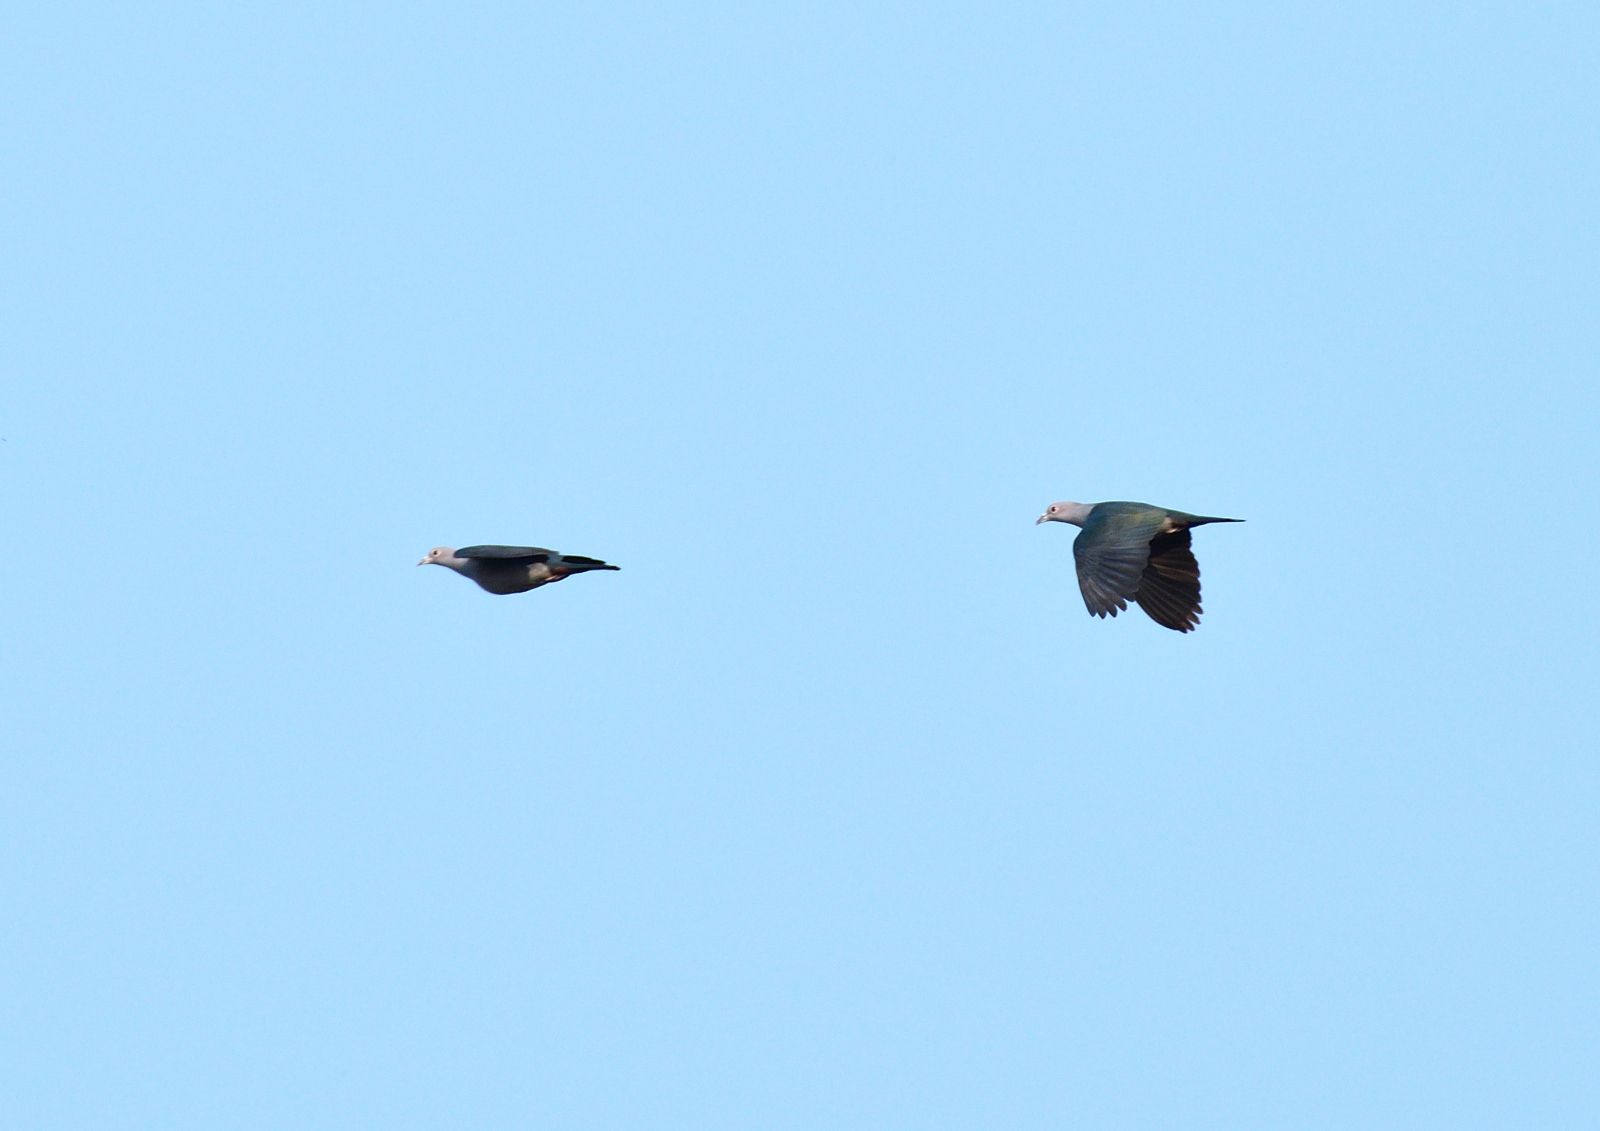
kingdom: Animalia
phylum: Chordata
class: Aves
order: Columbiformes
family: Columbidae
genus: Ducula
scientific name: Ducula aenea
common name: Green imperial pigeon
